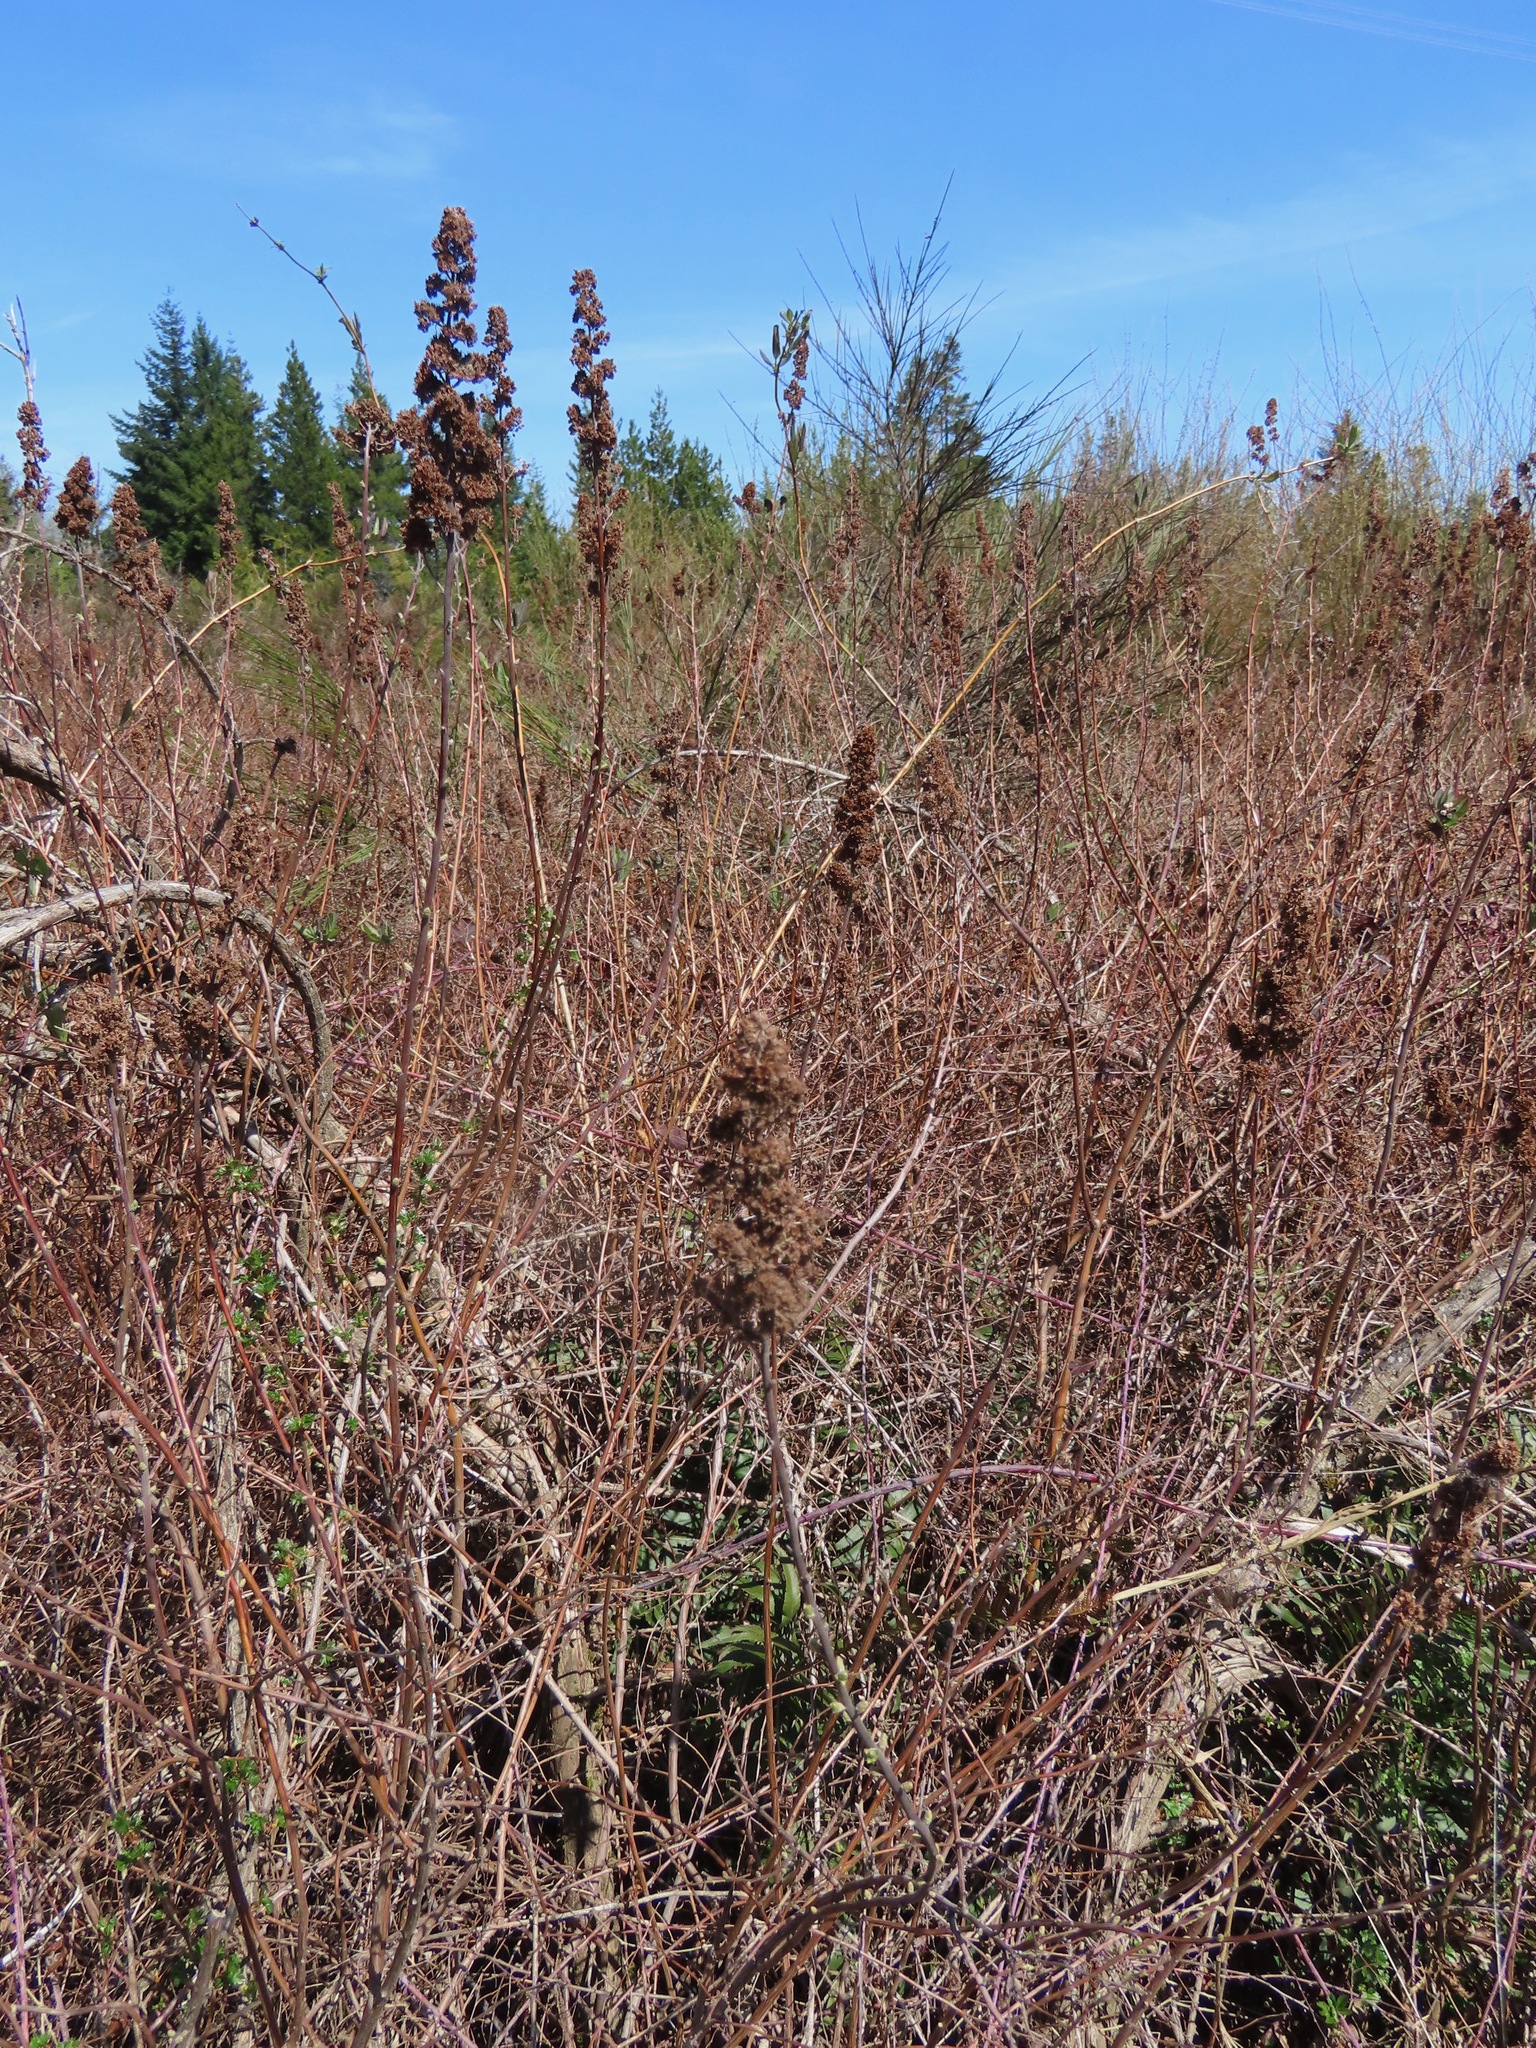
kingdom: Plantae
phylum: Tracheophyta
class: Magnoliopsida
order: Rosales
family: Rosaceae
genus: Spiraea
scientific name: Spiraea douglasii
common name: Steeplebush
